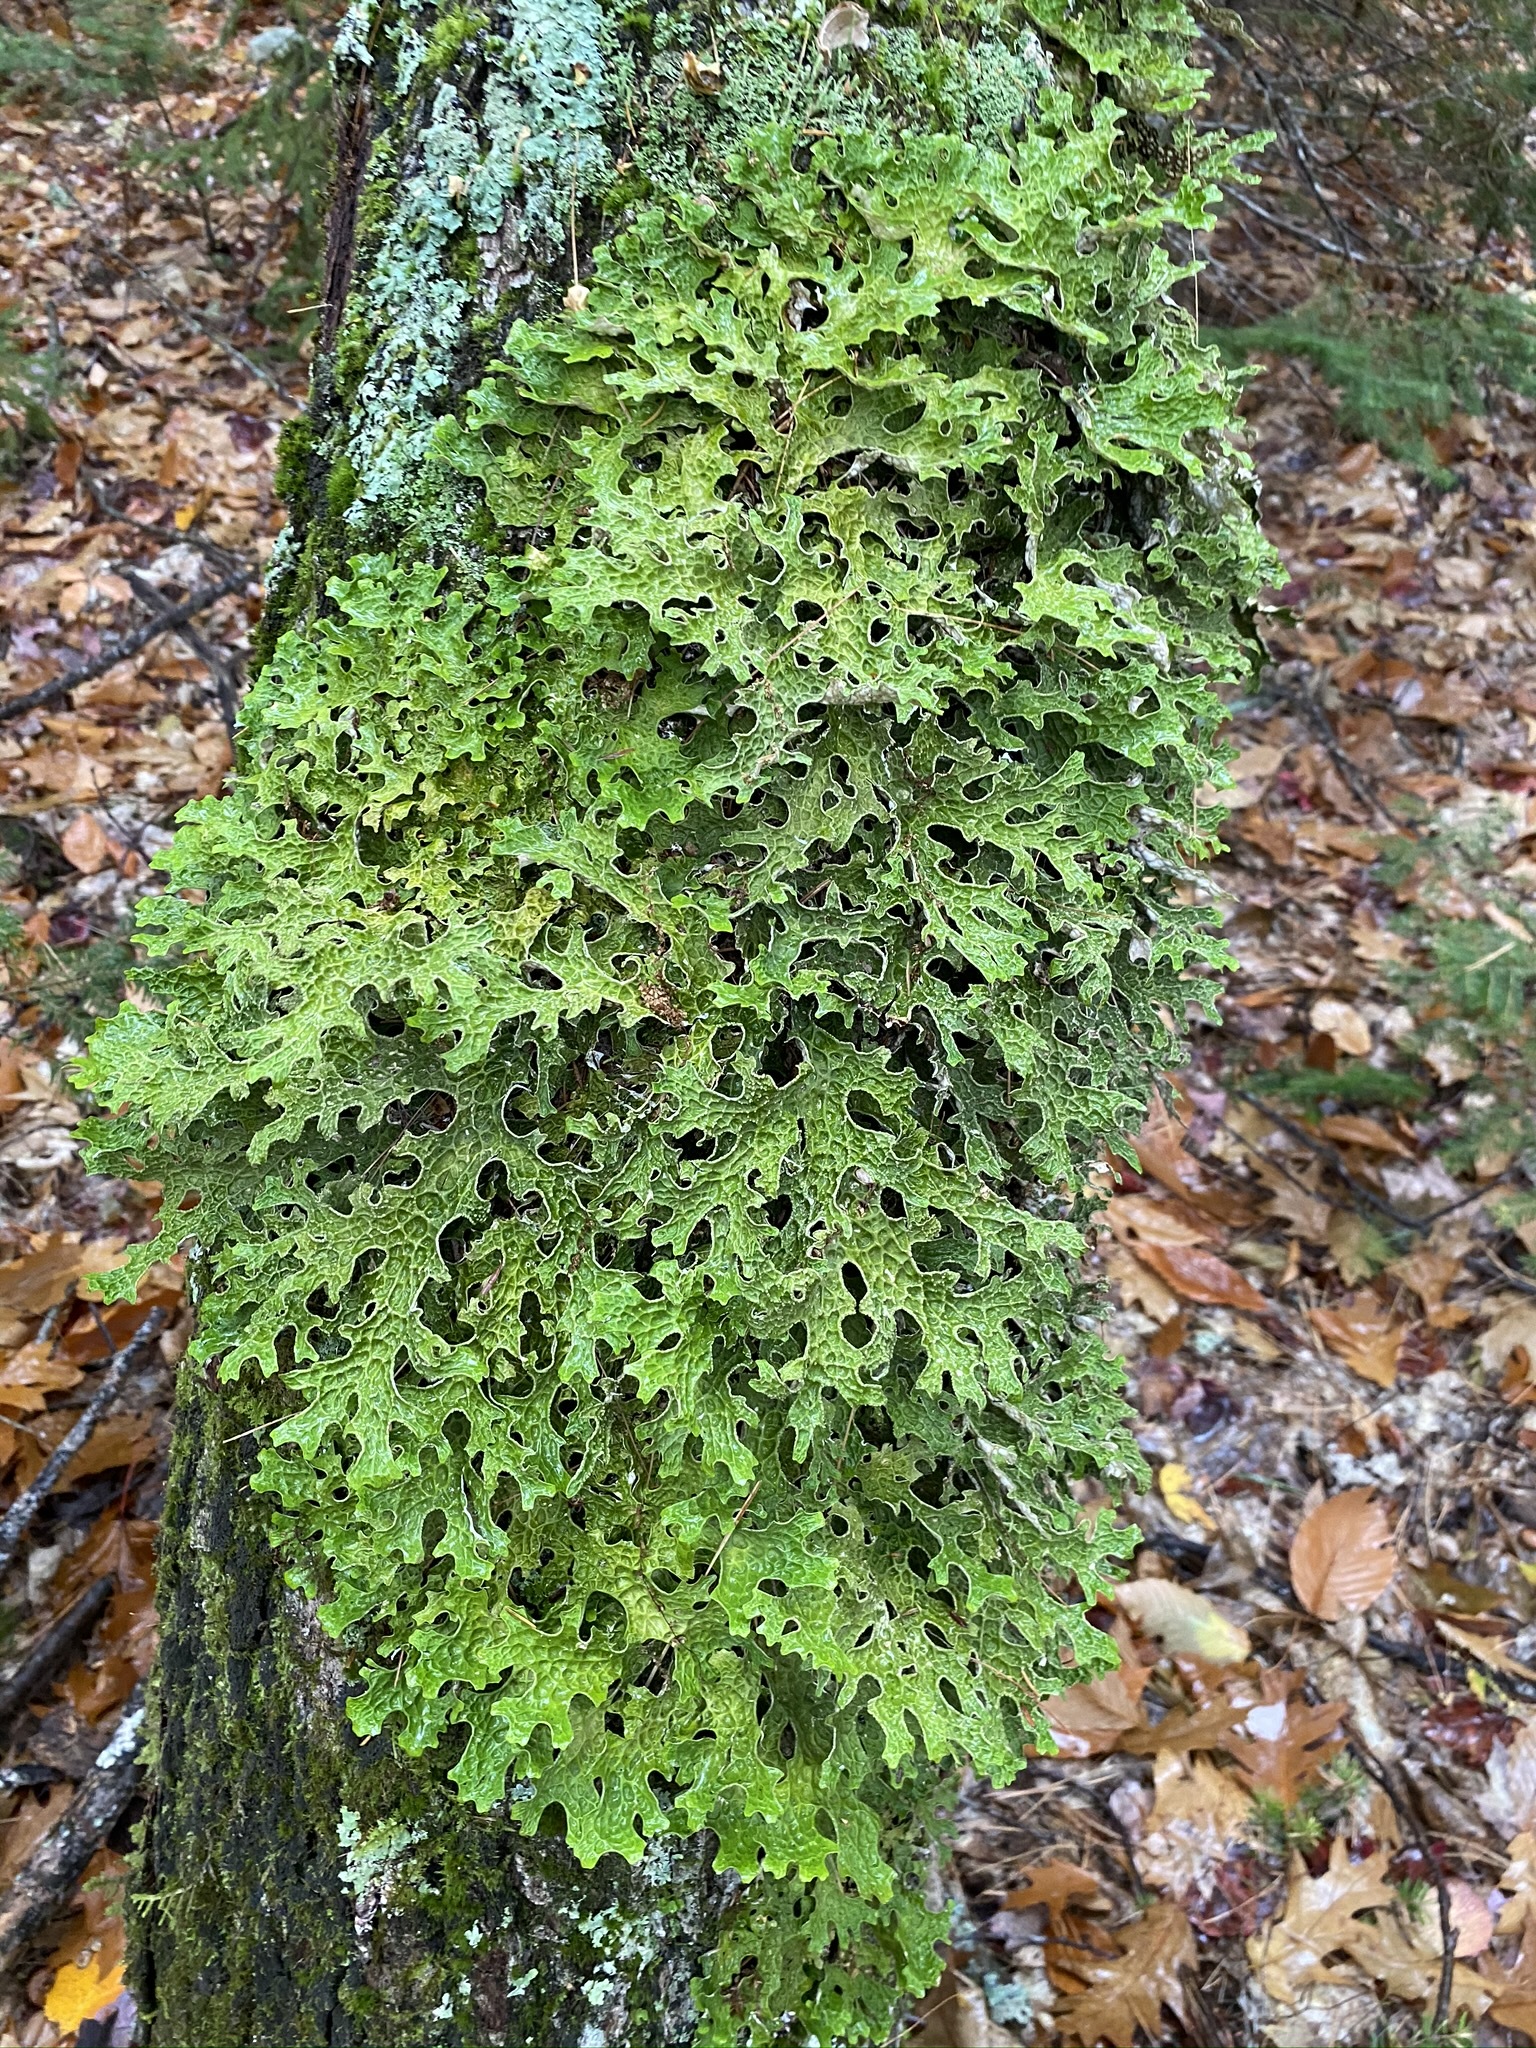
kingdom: Fungi
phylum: Ascomycota
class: Lecanoromycetes
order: Peltigerales
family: Lobariaceae
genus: Lobaria
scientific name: Lobaria pulmonaria
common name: Lungwort
